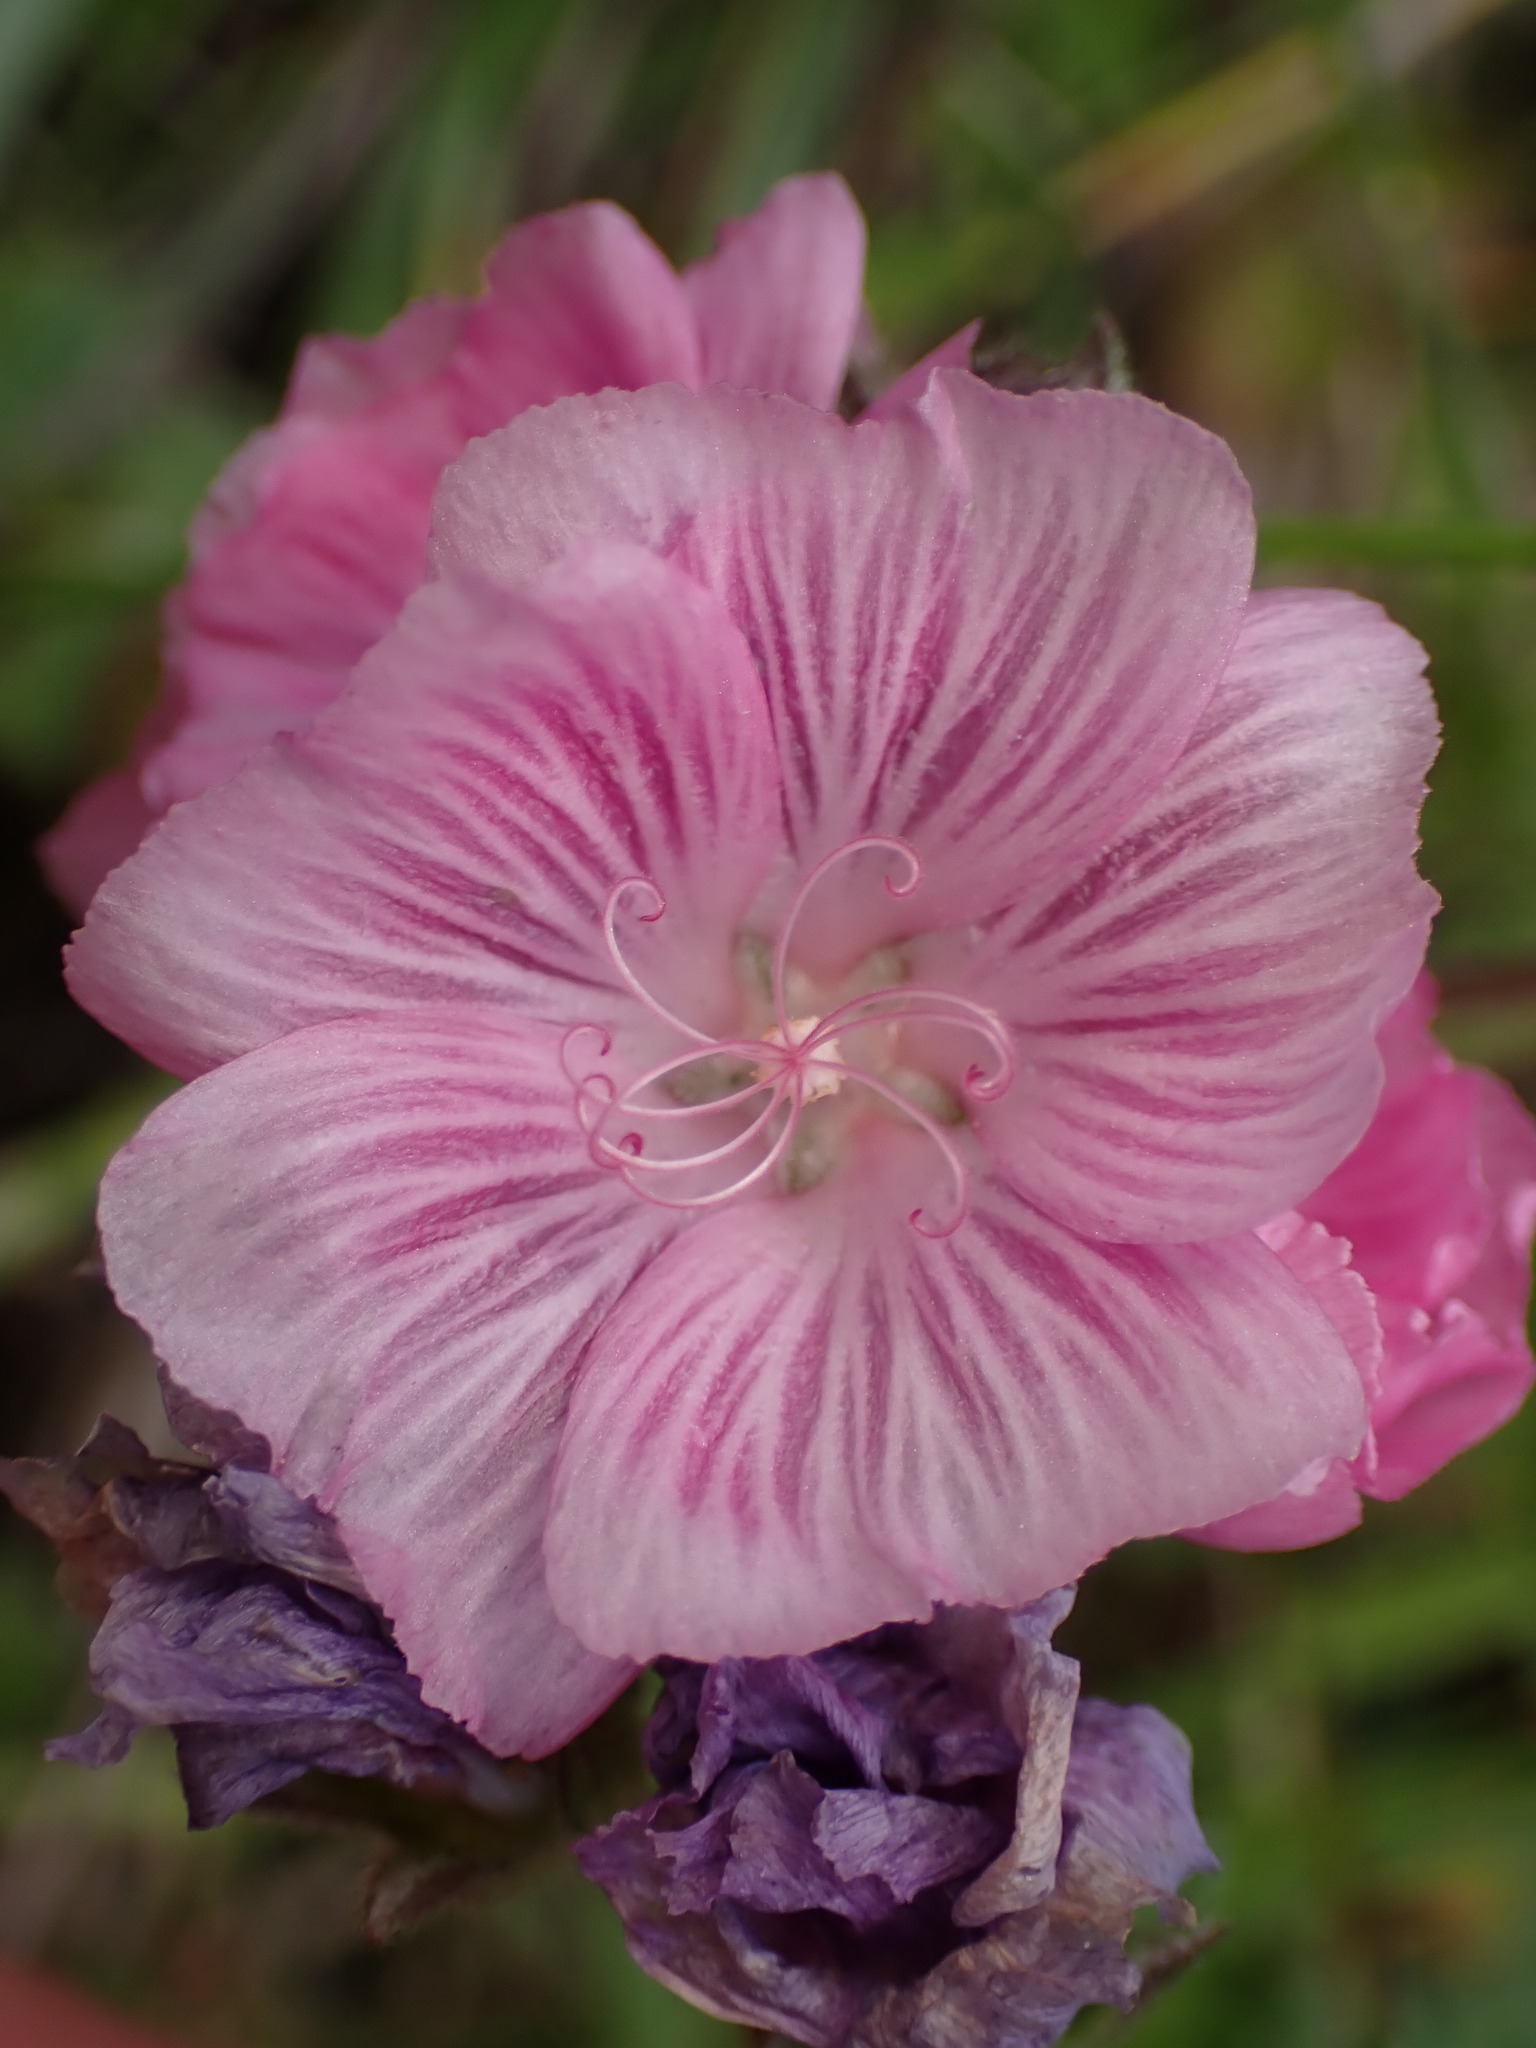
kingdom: Plantae
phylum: Tracheophyta
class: Magnoliopsida
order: Malvales
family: Malvaceae
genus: Sidalcea
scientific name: Sidalcea malviflora
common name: Greek mallow
